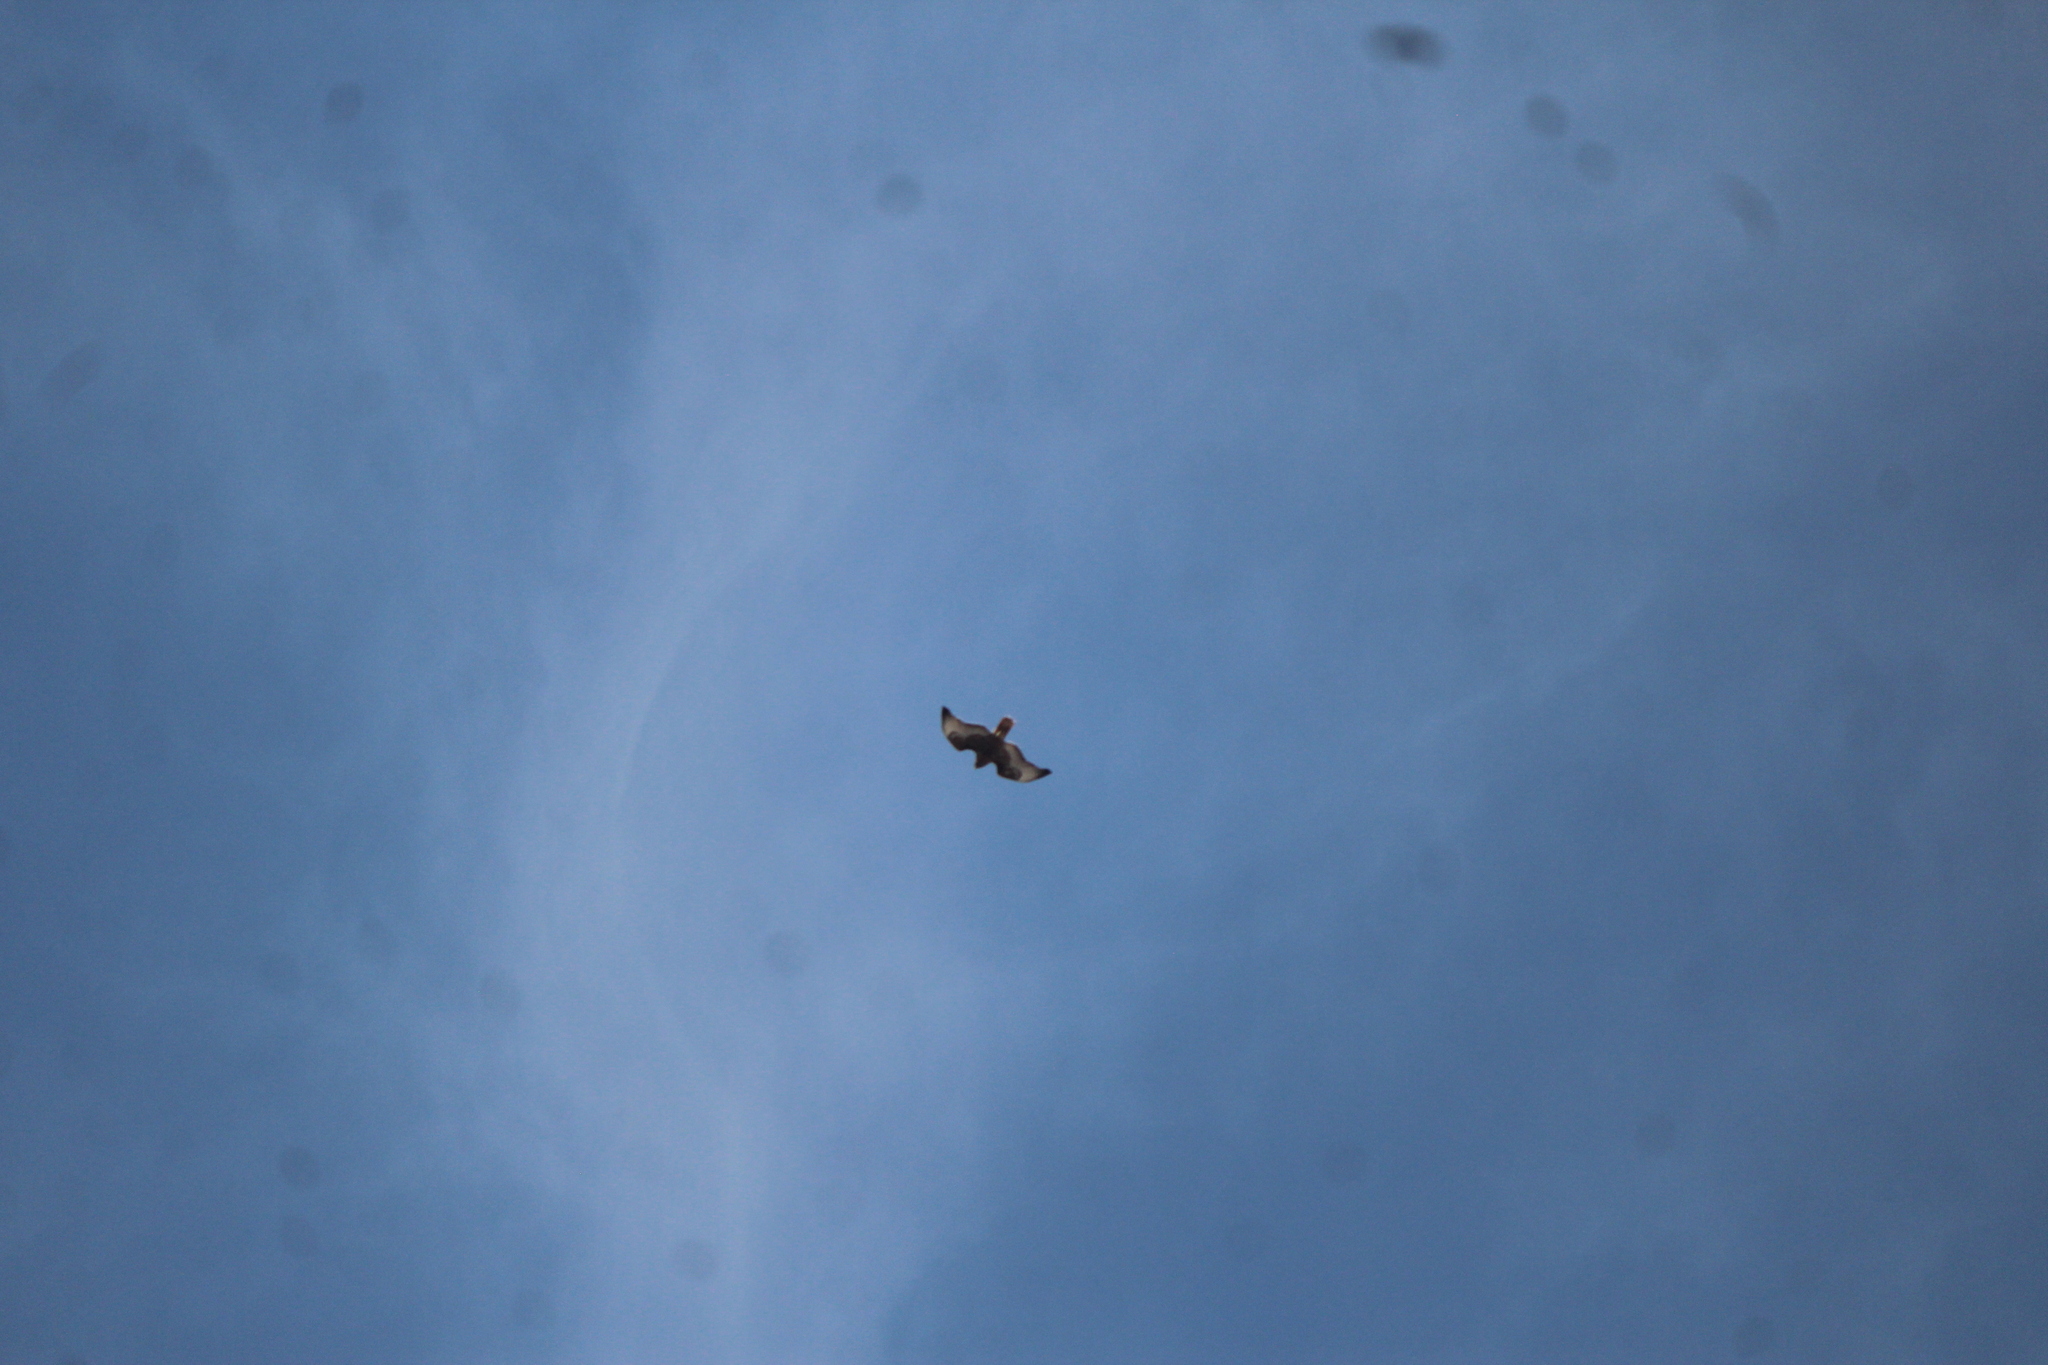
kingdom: Animalia
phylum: Chordata
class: Aves
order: Accipitriformes
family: Accipitridae
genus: Buteo
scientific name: Buteo jamaicensis
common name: Red-tailed hawk
